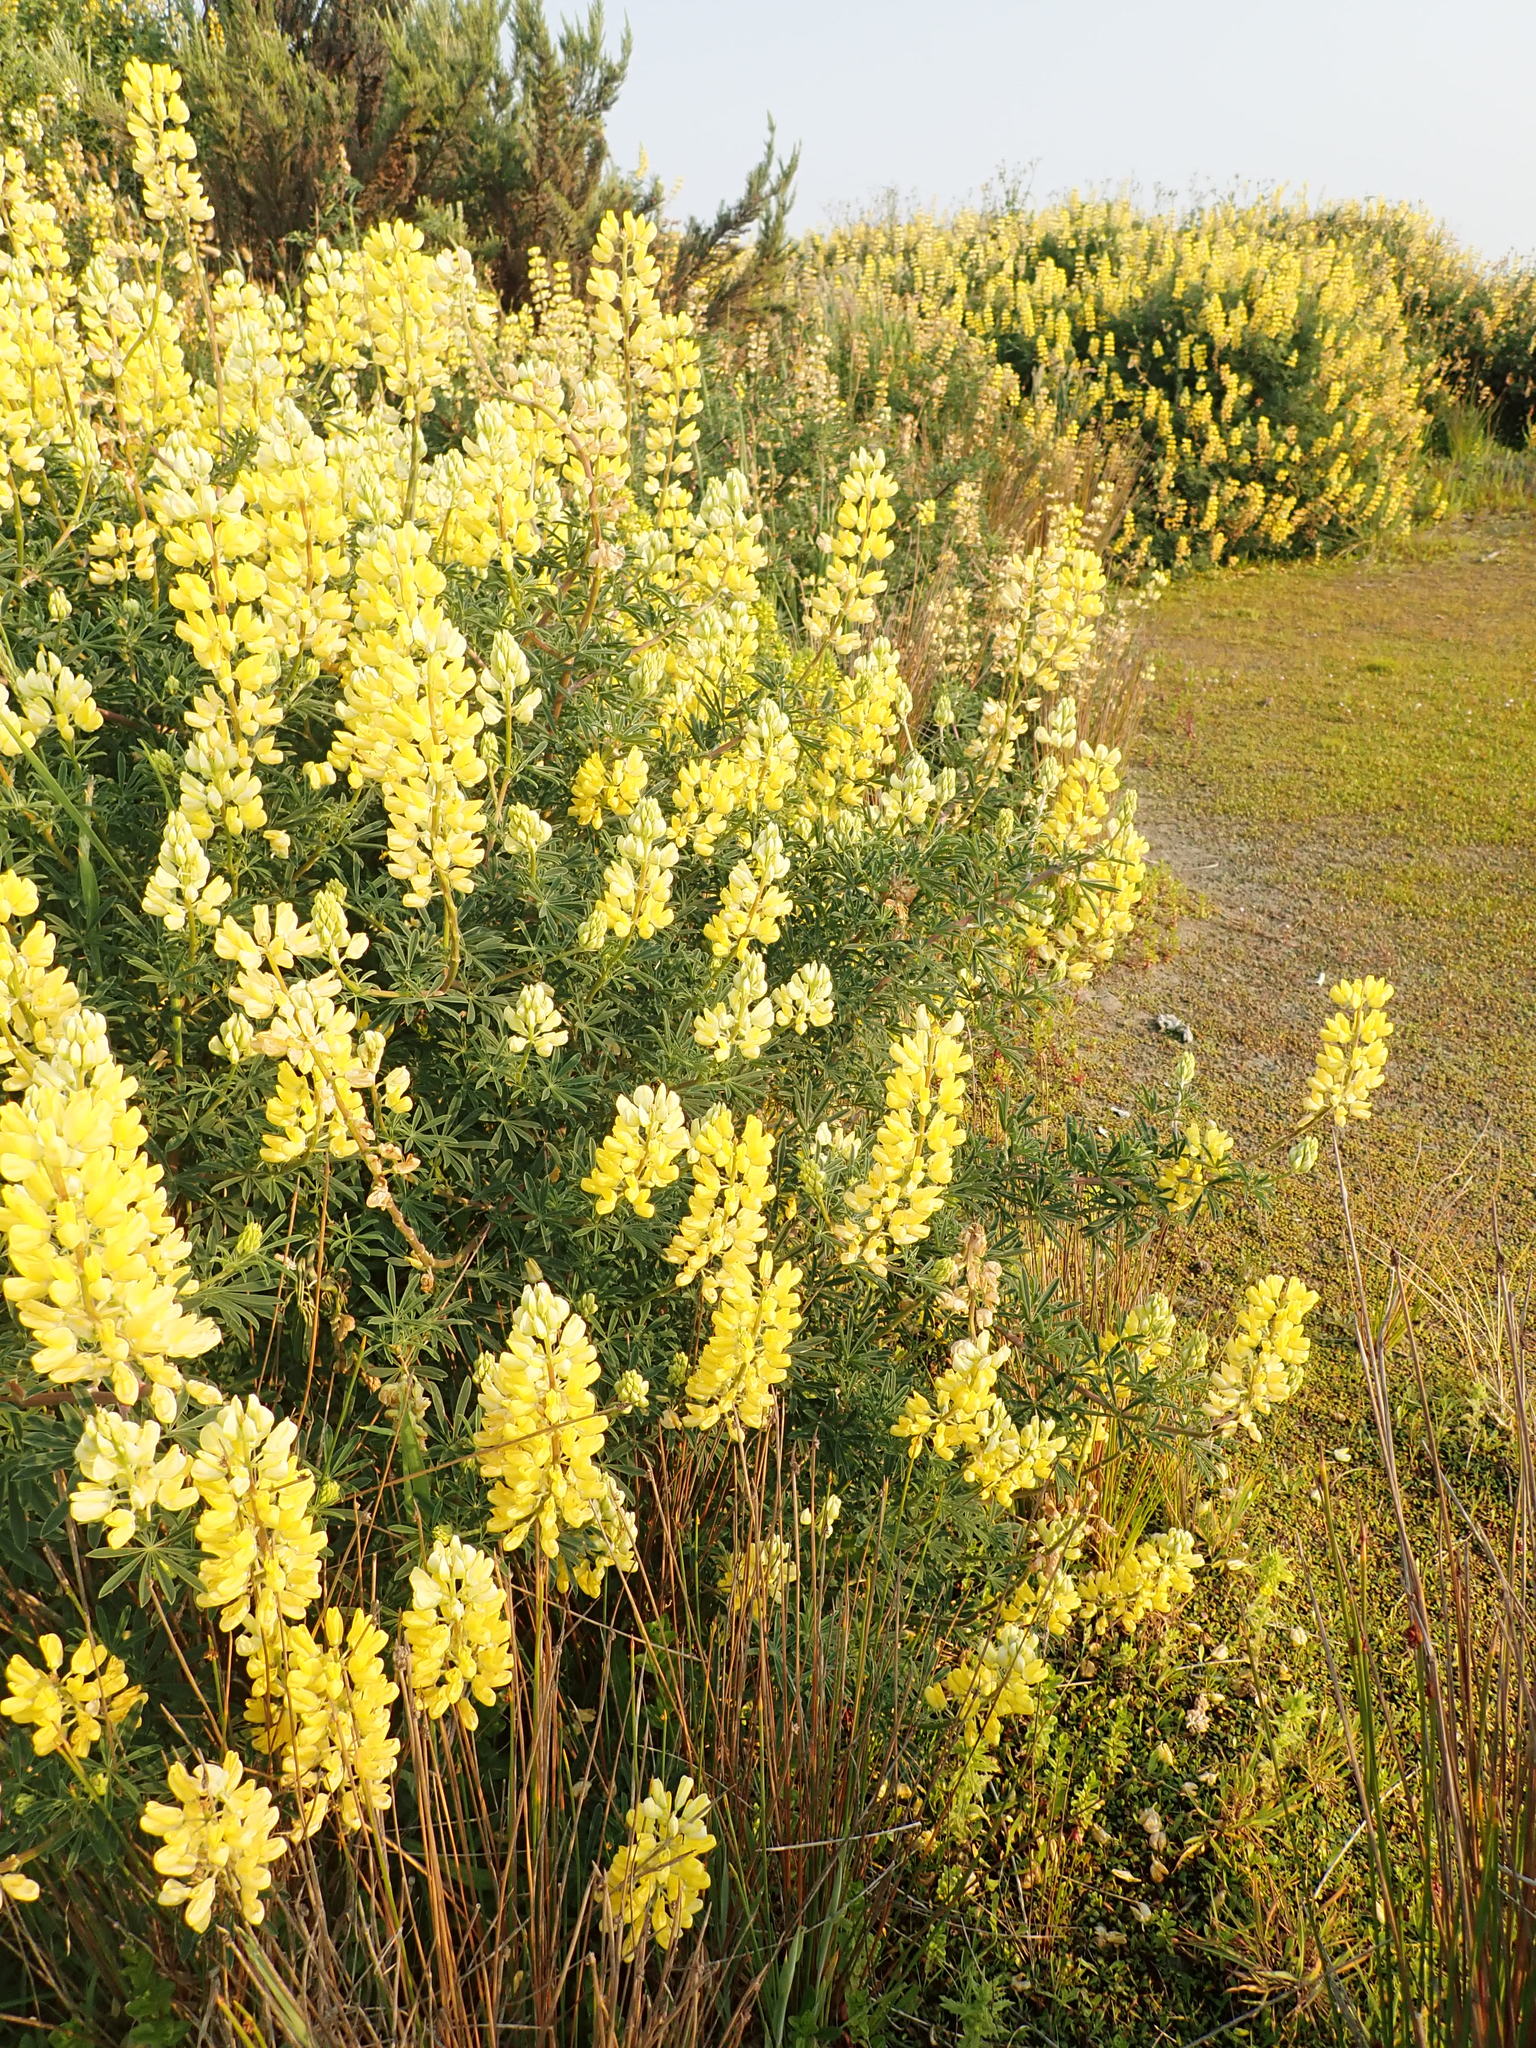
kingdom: Plantae
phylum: Tracheophyta
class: Magnoliopsida
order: Fabales
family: Fabaceae
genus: Lupinus
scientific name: Lupinus arboreus
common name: Yellow bush lupine
